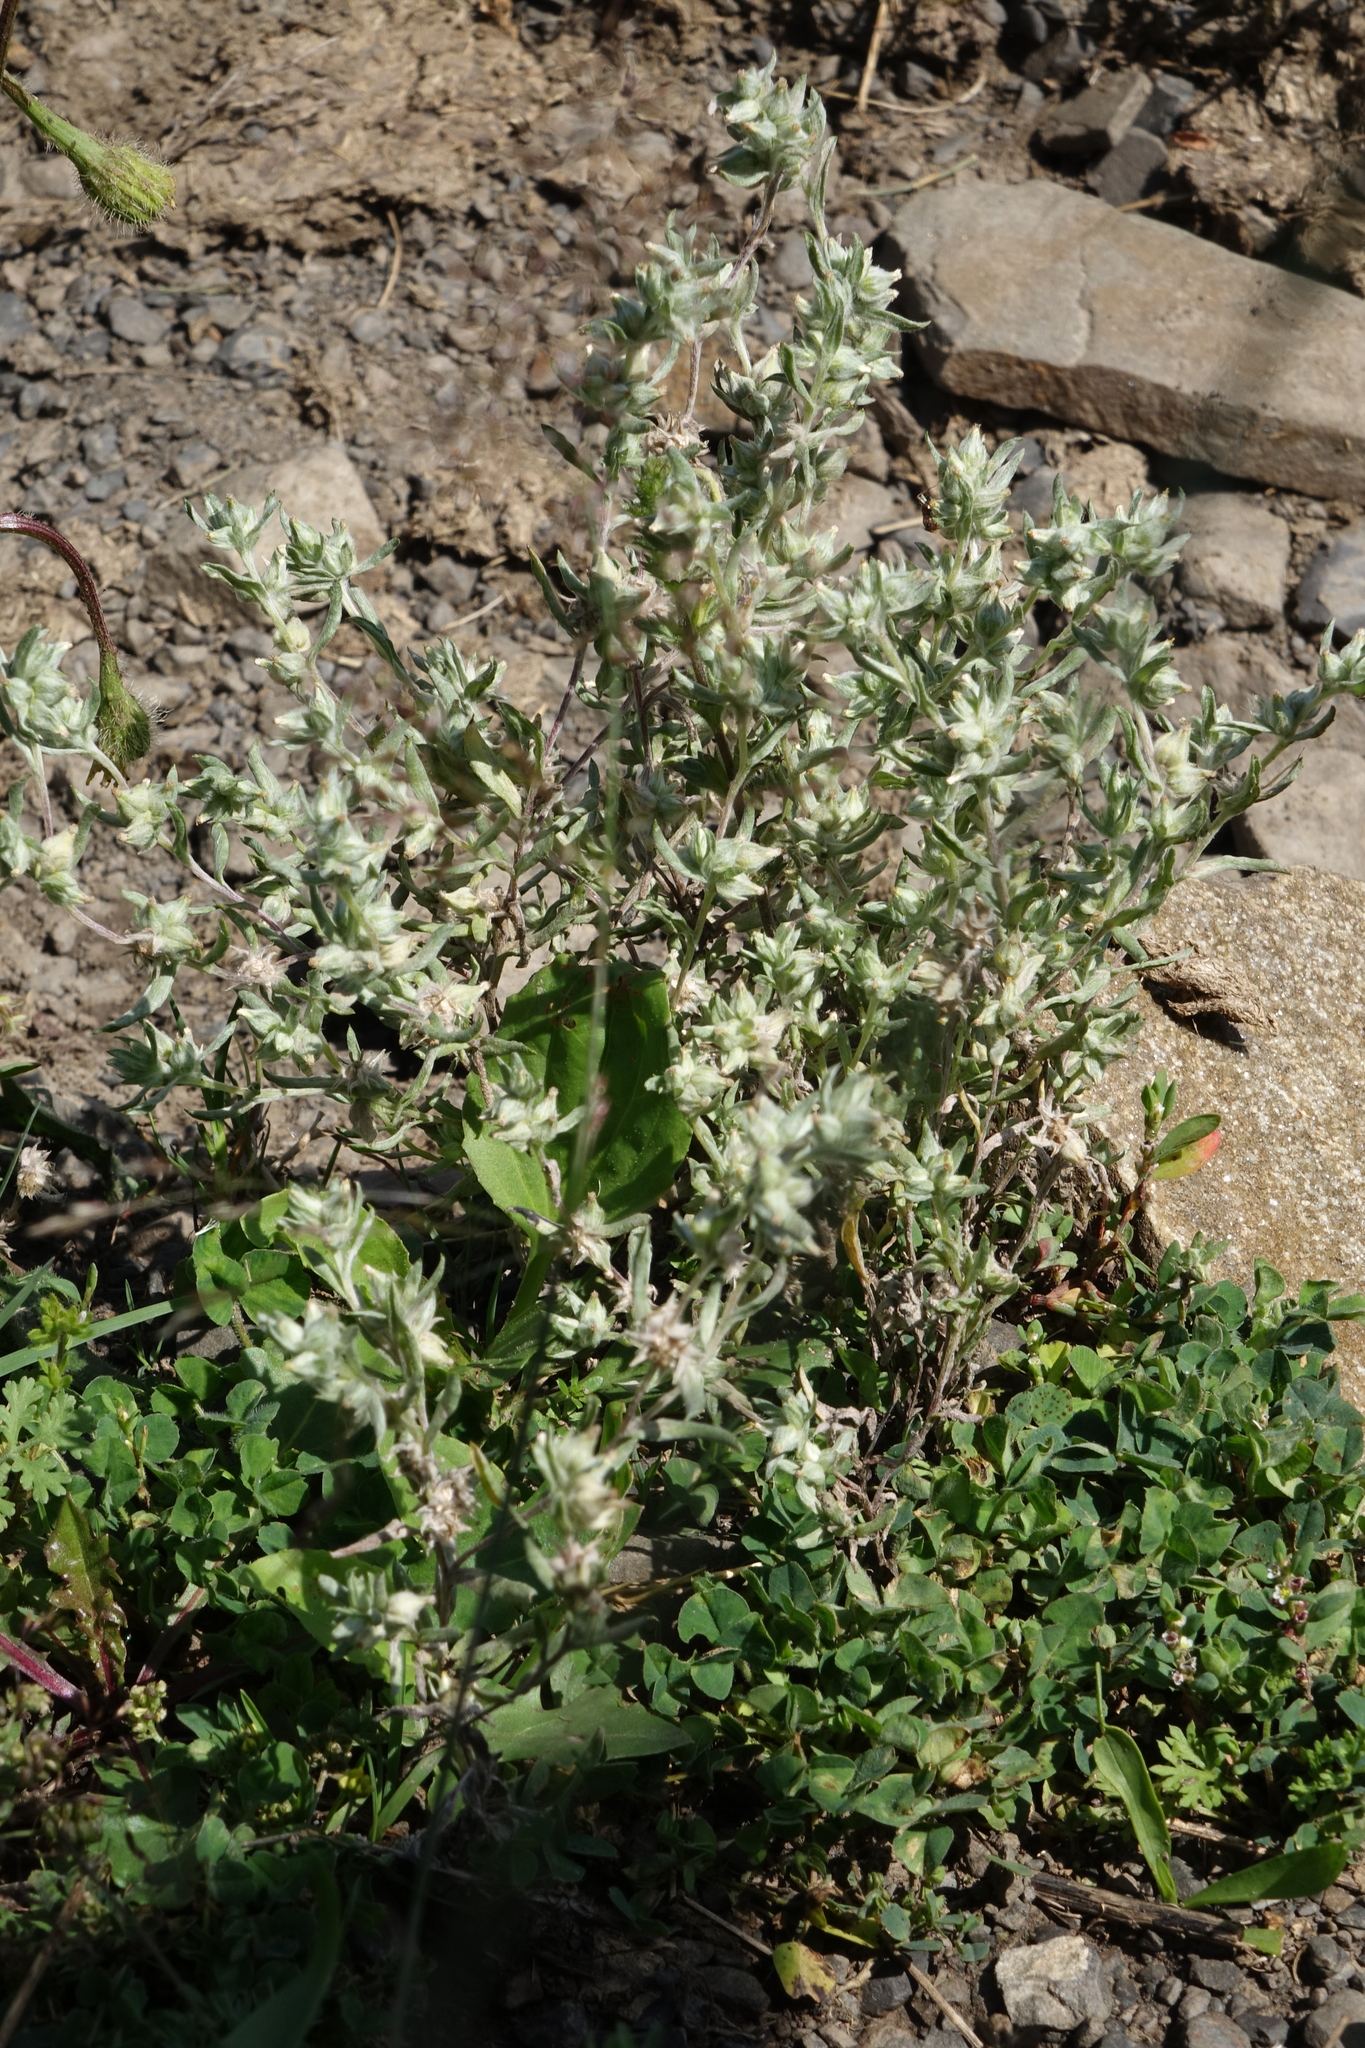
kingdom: Plantae
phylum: Tracheophyta
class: Magnoliopsida
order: Asterales
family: Asteraceae
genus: Filago
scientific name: Filago arvensis
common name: Field cudweed
